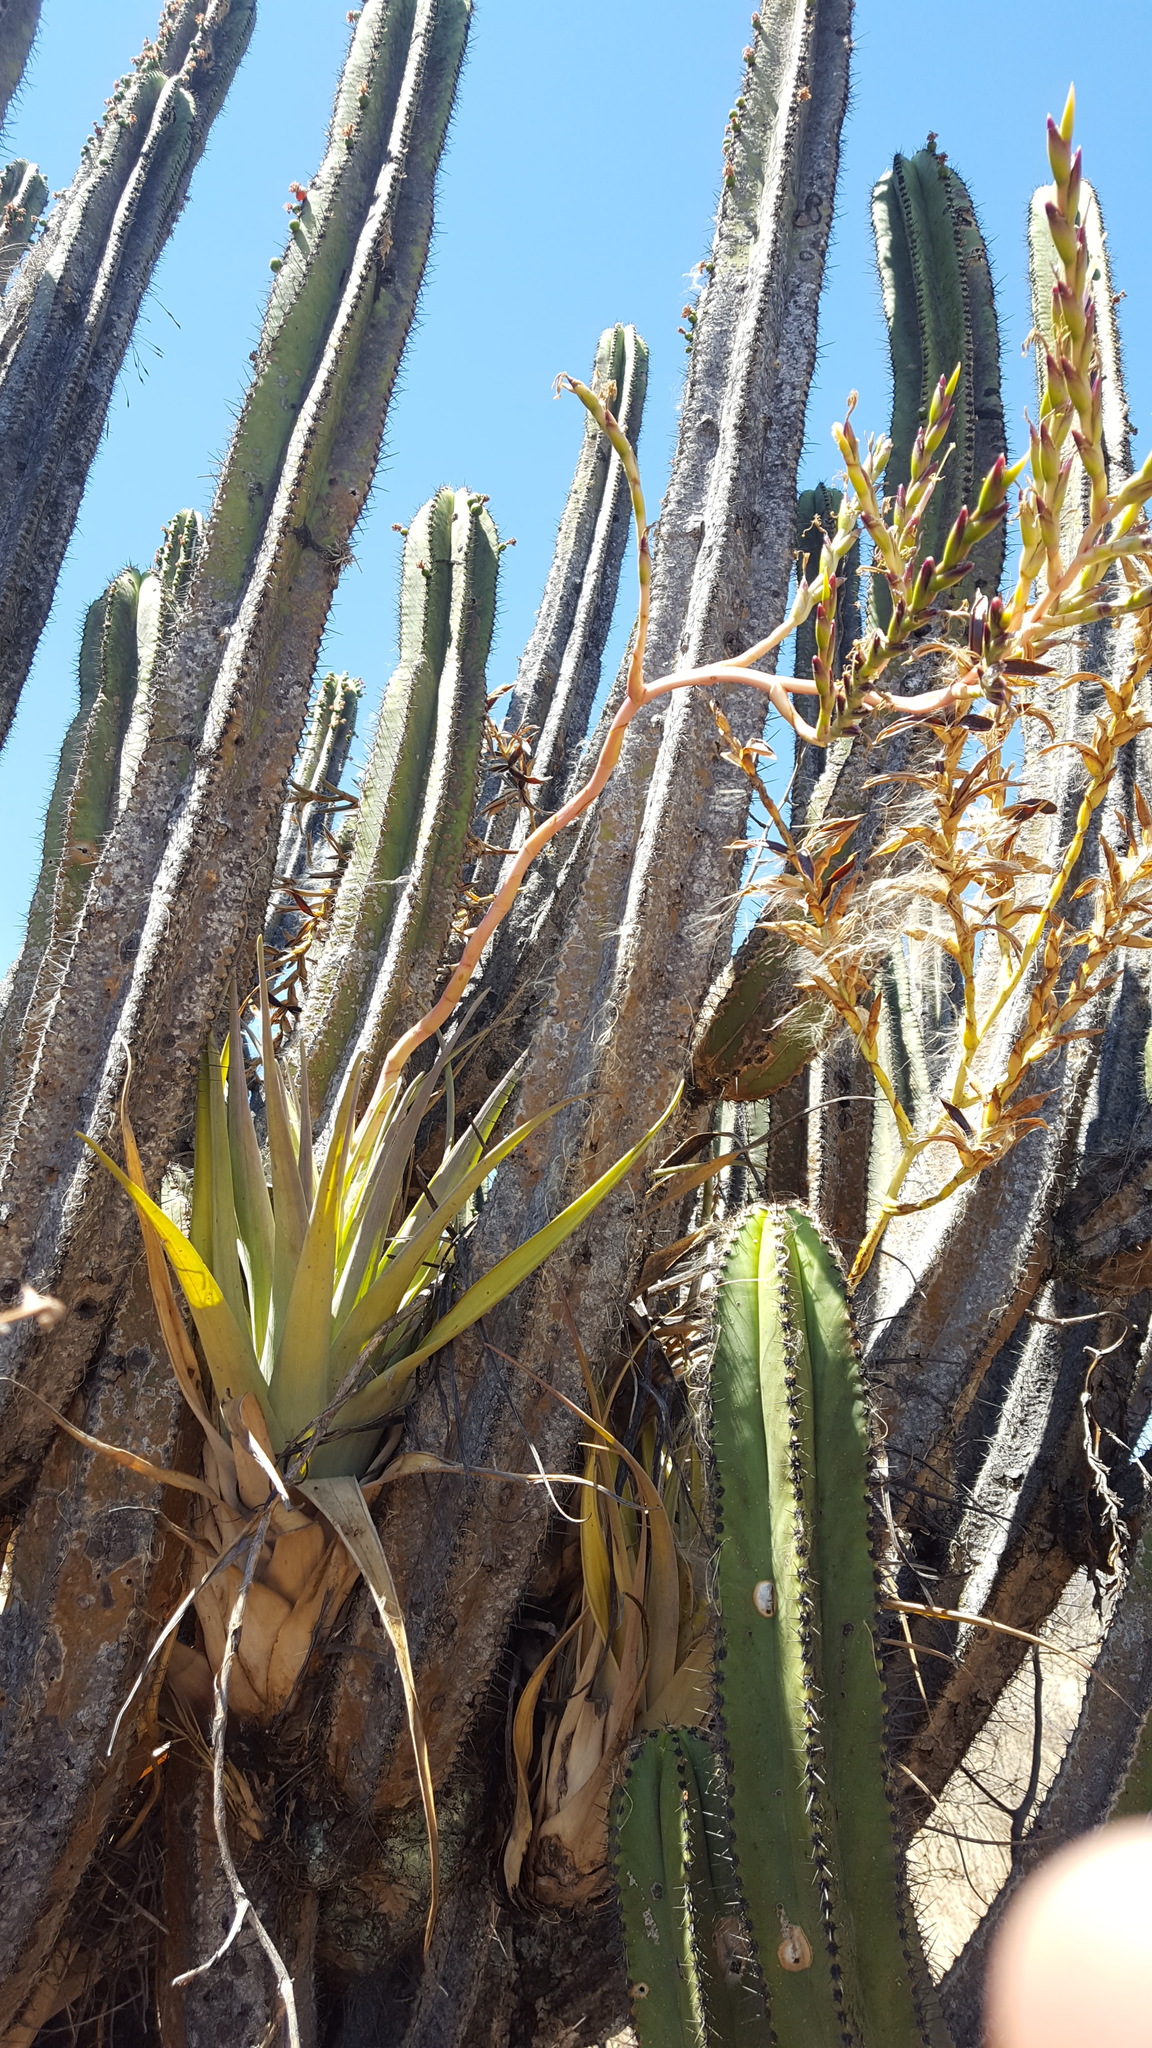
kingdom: Plantae
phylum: Tracheophyta
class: Liliopsida
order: Poales
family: Bromeliaceae
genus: Tillandsia
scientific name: Tillandsia makoyana
